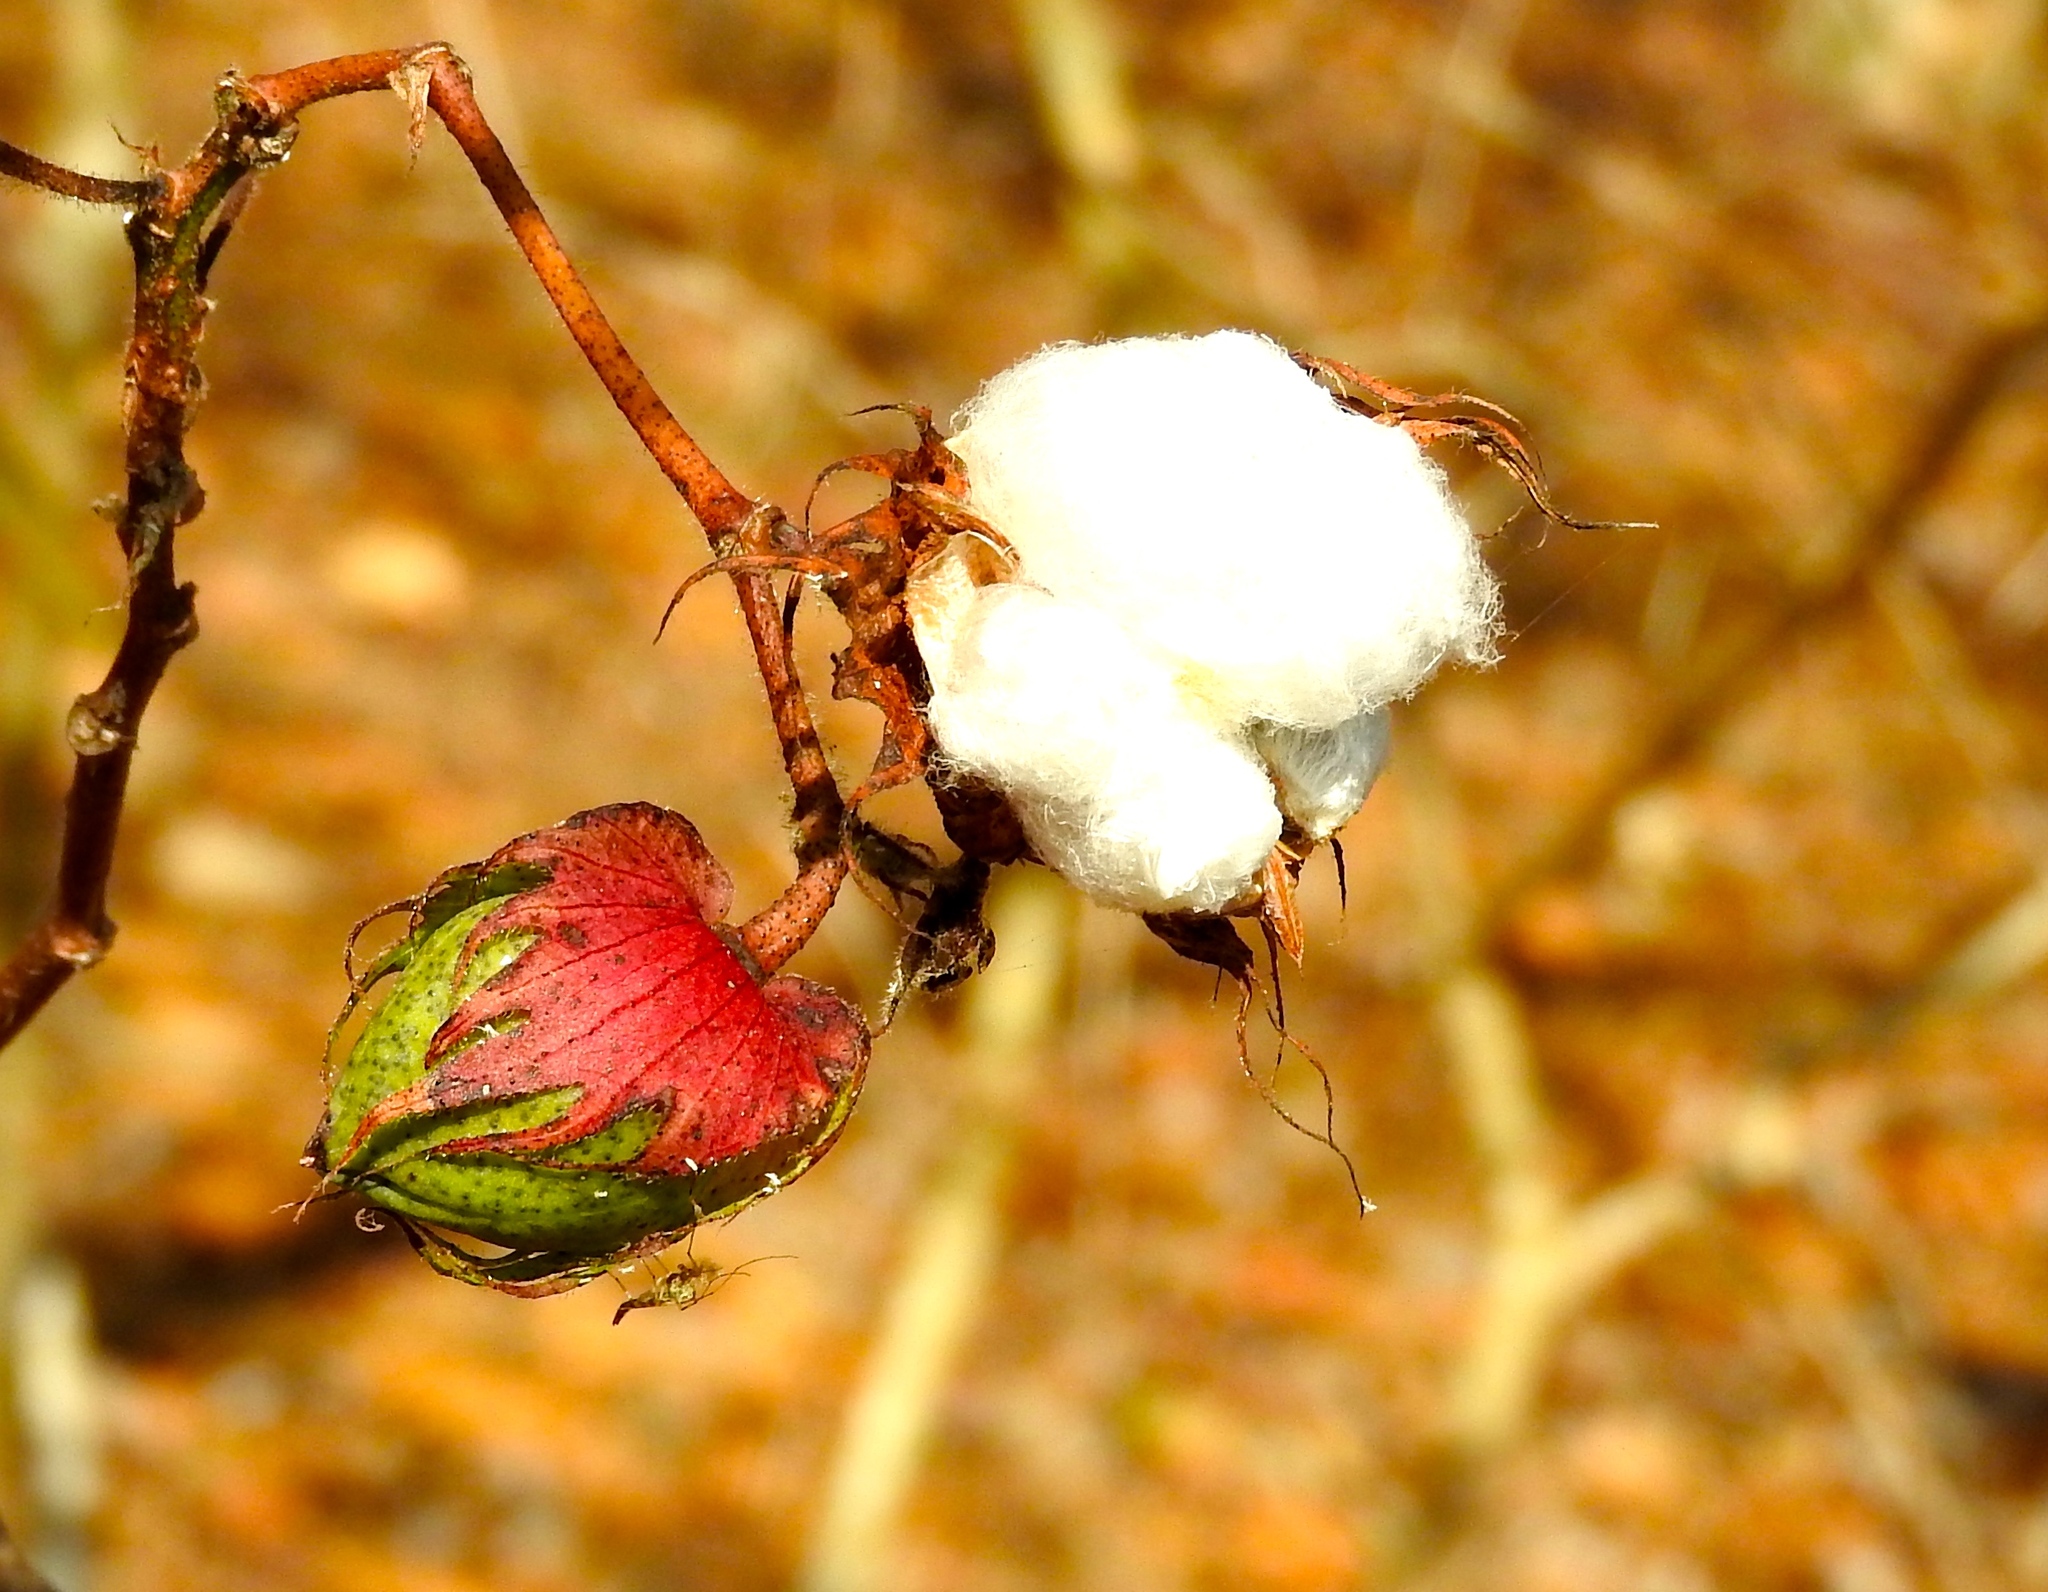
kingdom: Plantae
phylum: Tracheophyta
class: Magnoliopsida
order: Malvales
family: Malvaceae
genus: Gossypium
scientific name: Gossypium hirsutum
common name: Cotton
